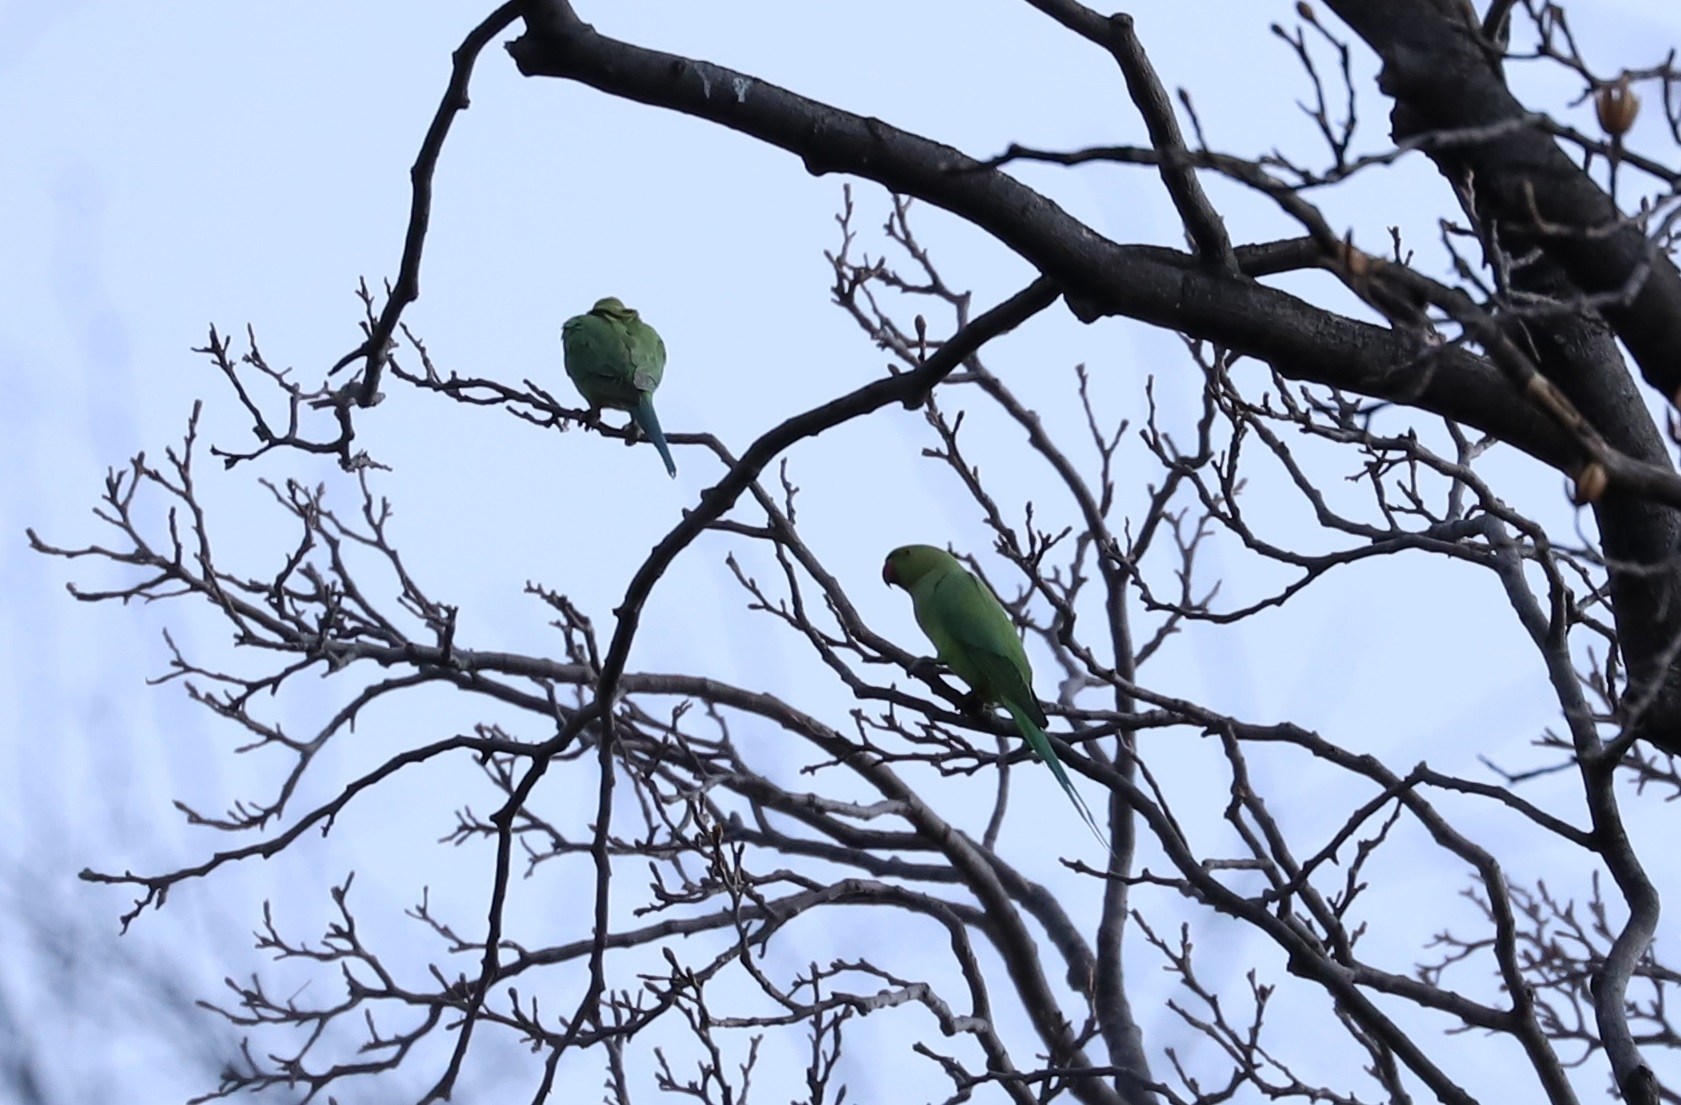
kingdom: Animalia
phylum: Chordata
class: Aves
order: Psittaciformes
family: Psittacidae
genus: Psittacula
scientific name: Psittacula krameri
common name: Rose-ringed parakeet
